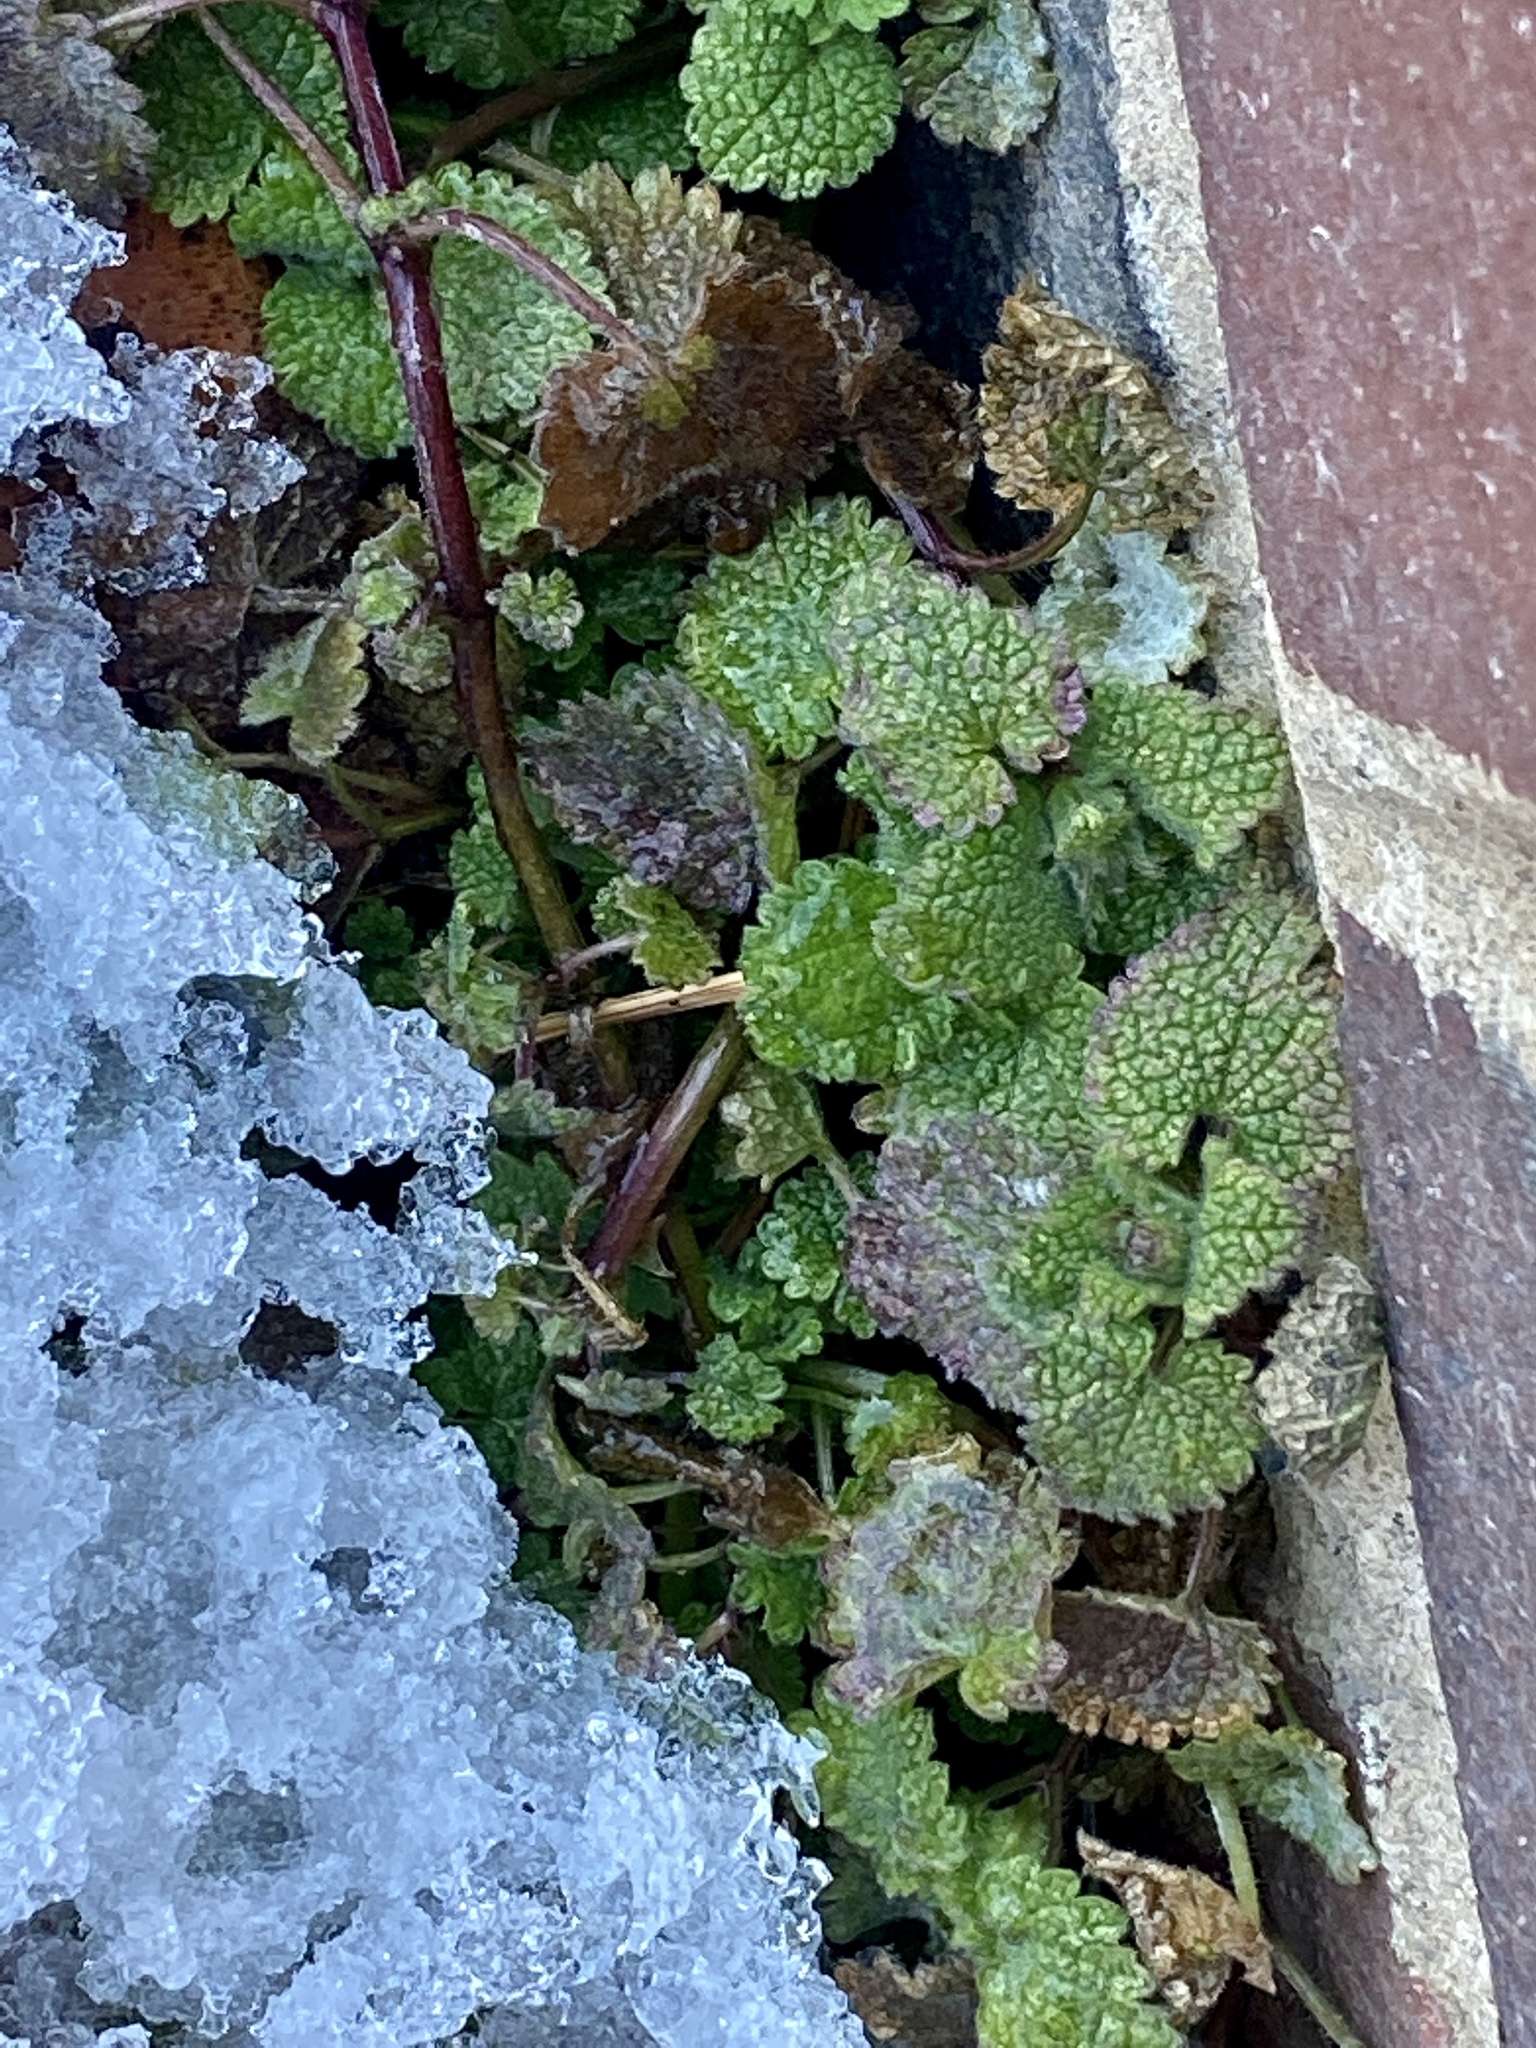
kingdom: Plantae
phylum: Tracheophyta
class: Magnoliopsida
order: Lamiales
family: Lamiaceae
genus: Lamium
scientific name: Lamium purpureum
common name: Red dead-nettle
